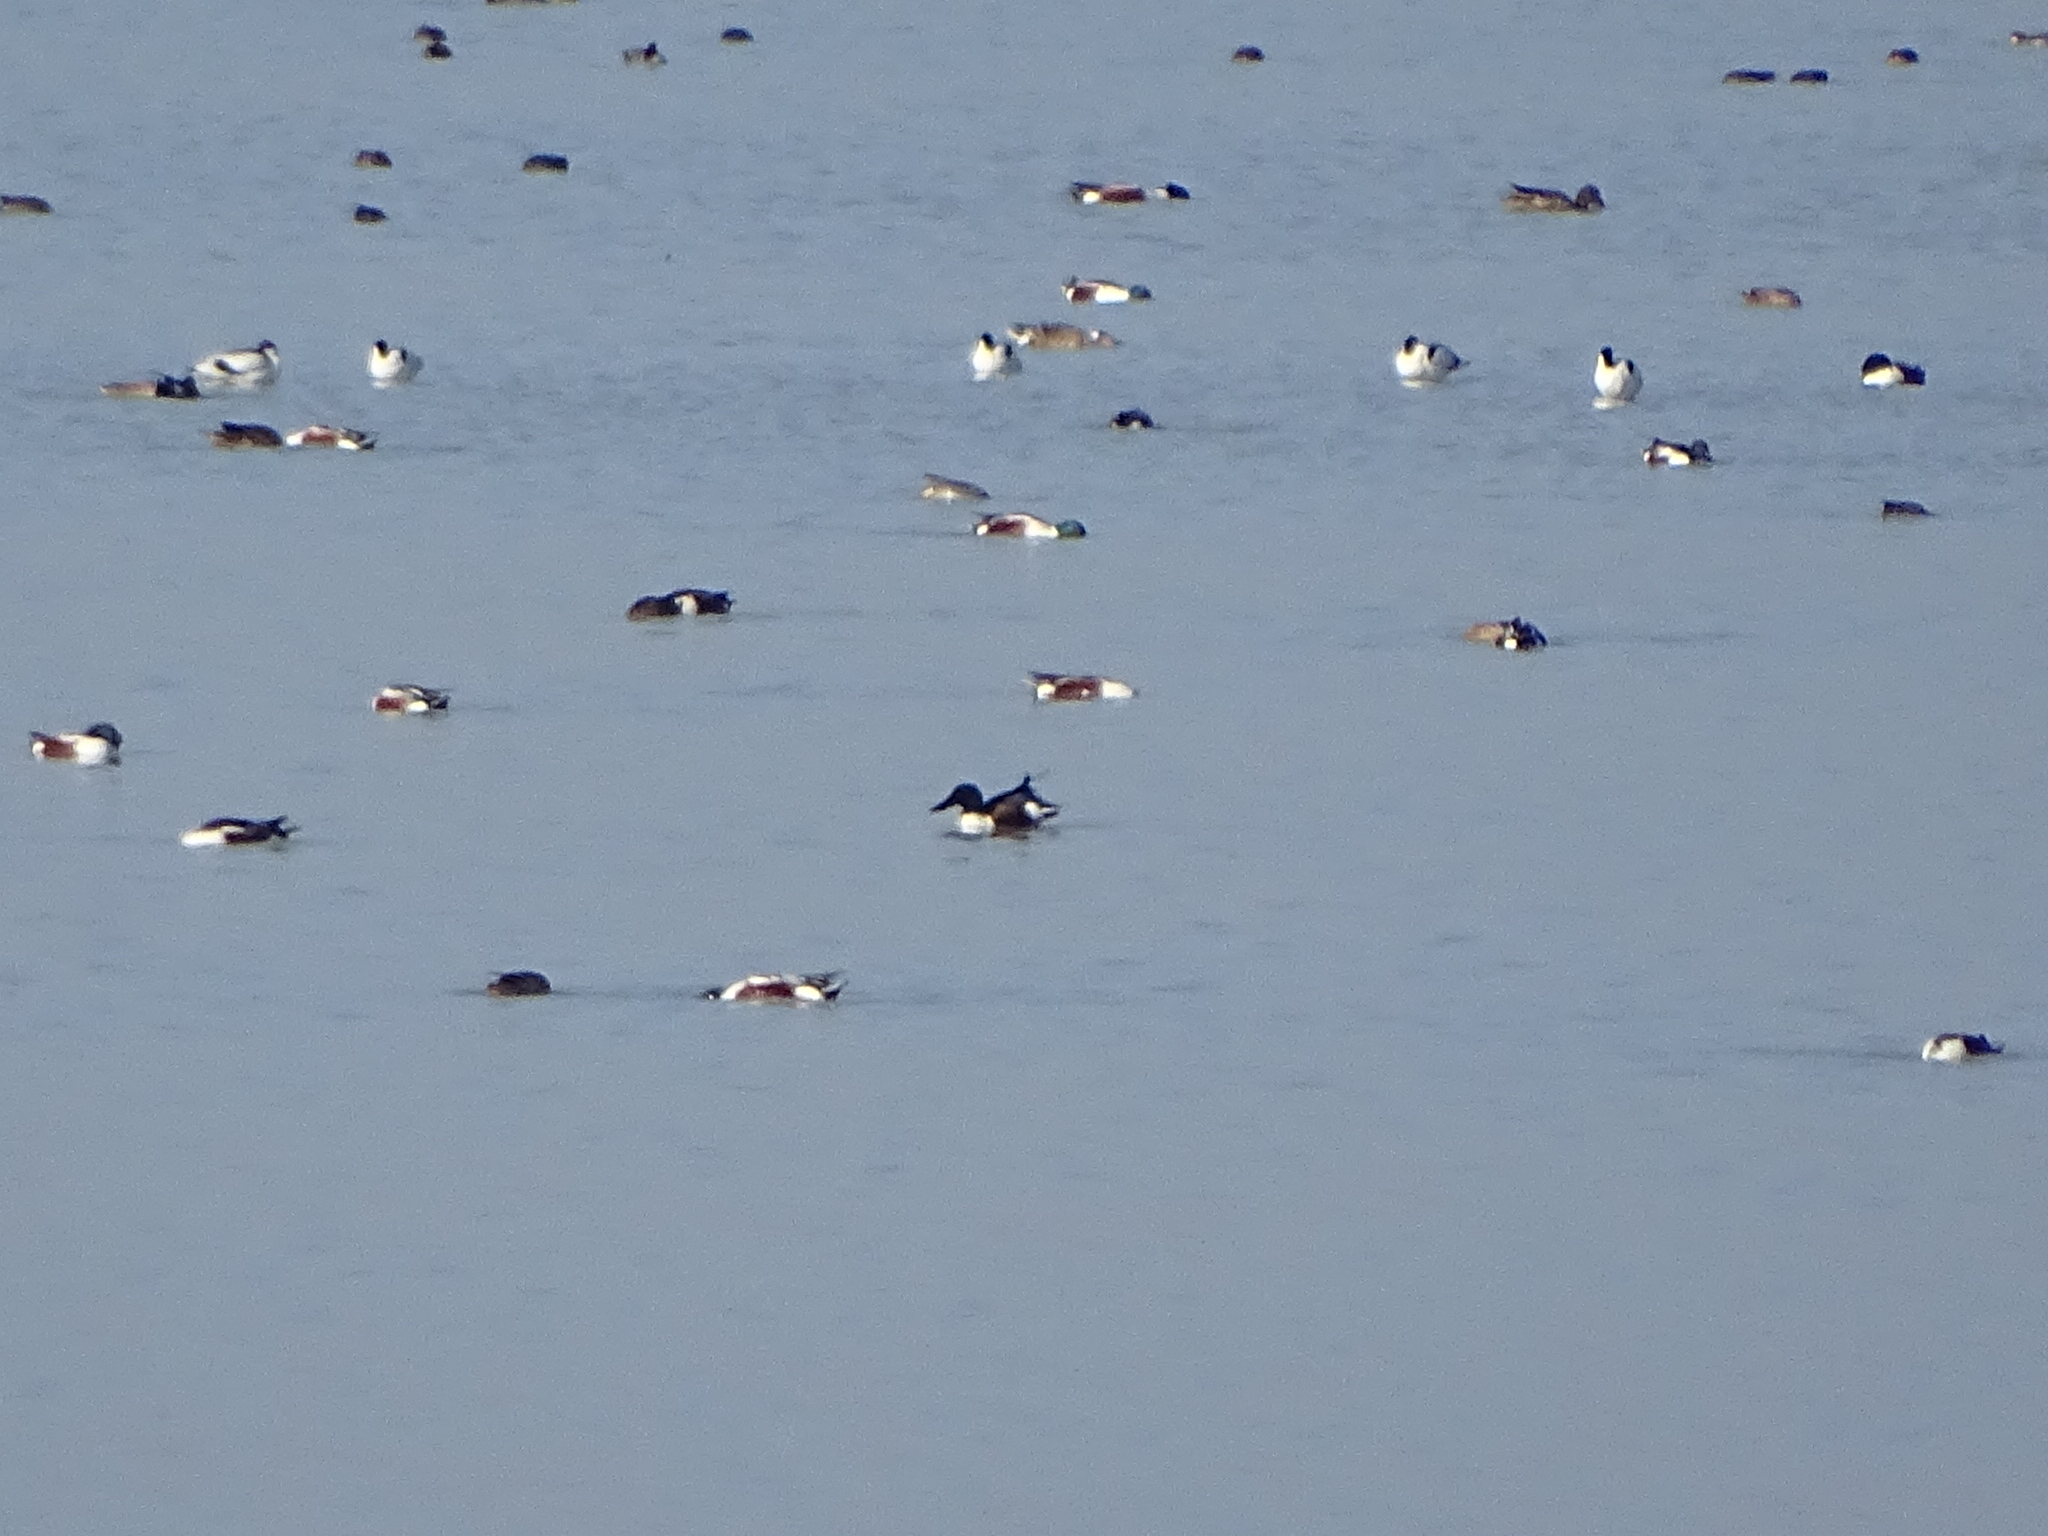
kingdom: Animalia
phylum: Chordata
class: Aves
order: Anseriformes
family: Anatidae
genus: Spatula
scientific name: Spatula clypeata
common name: Northern shoveler
